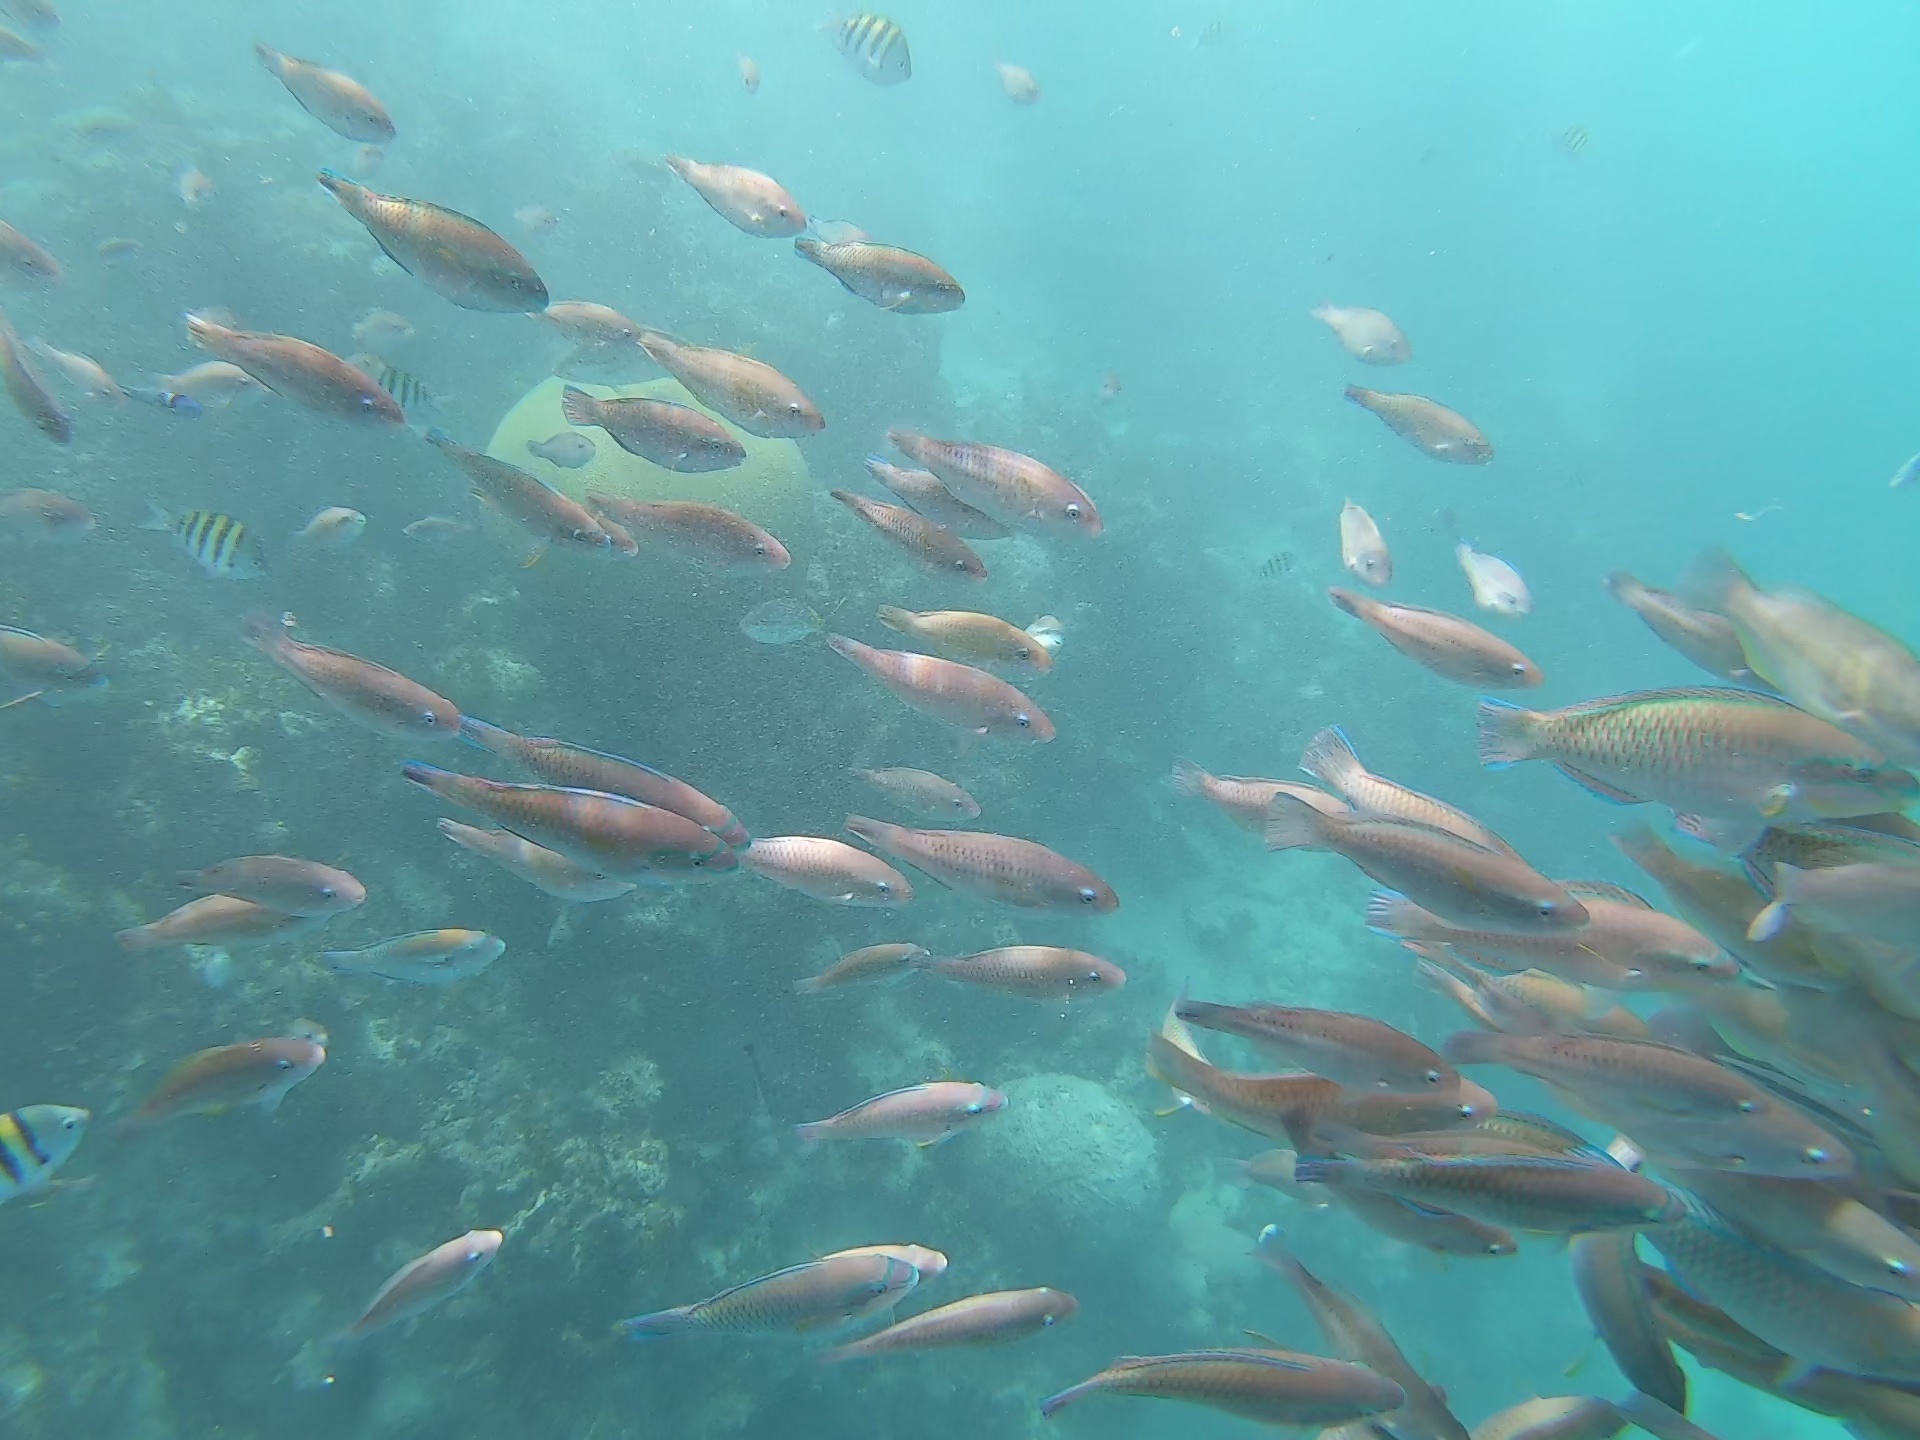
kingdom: Animalia
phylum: Chordata
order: Perciformes
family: Scaridae
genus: Scarus
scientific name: Scarus iseri
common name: Striped parrotfish
